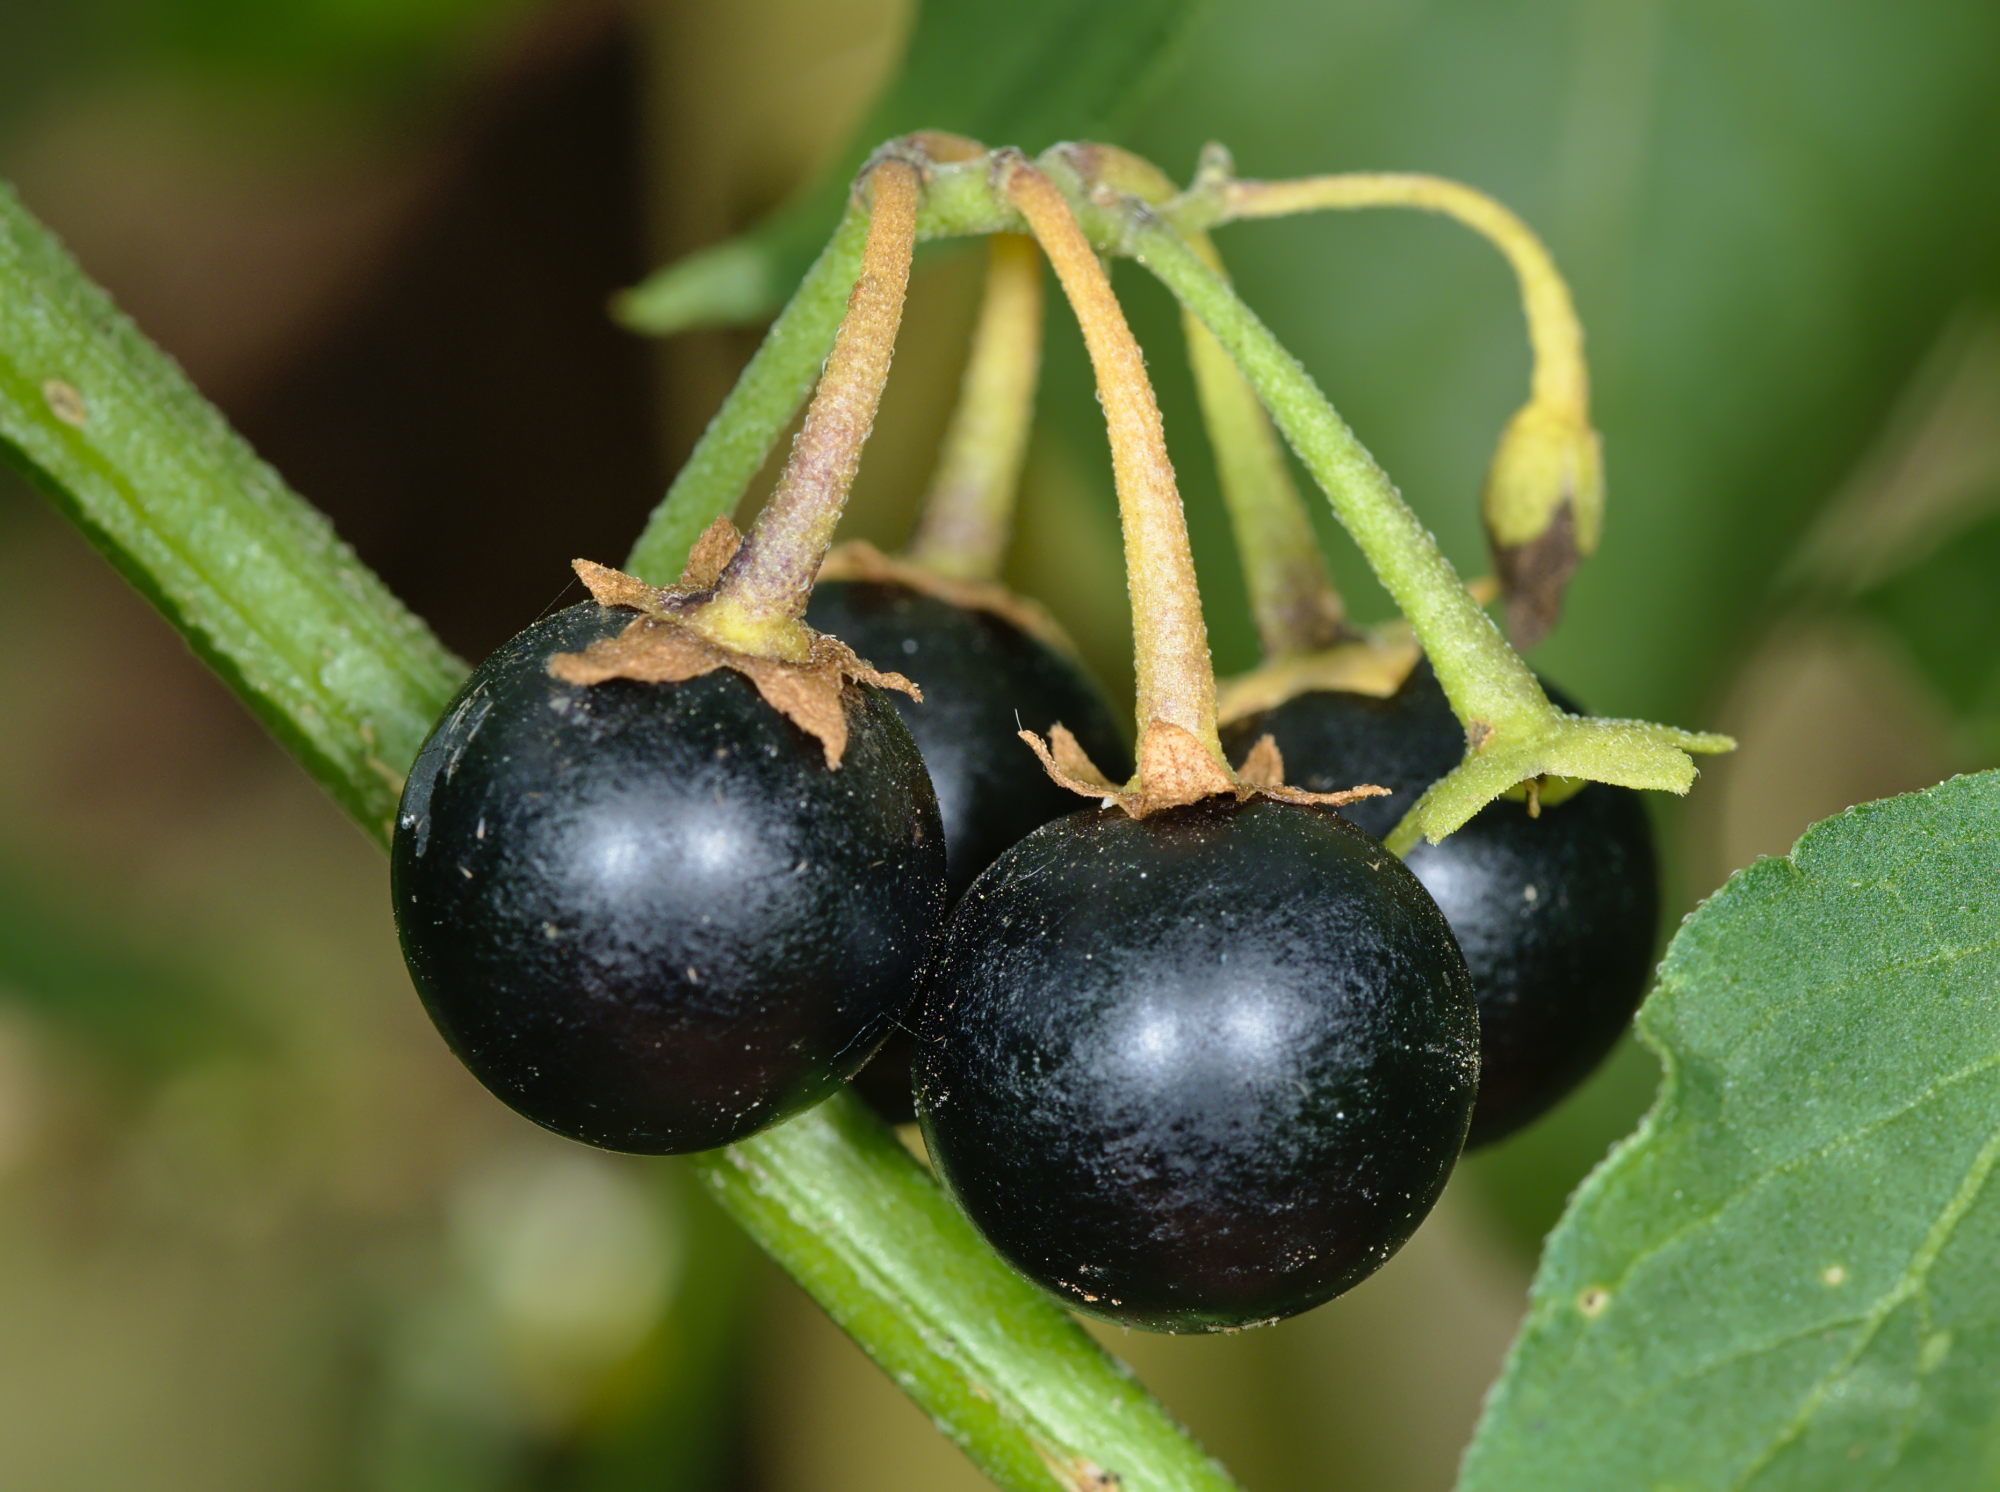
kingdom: Plantae
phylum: Tracheophyta
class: Magnoliopsida
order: Solanales
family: Solanaceae
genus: Solanum
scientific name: Solanum nigrum
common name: Black nightshade
